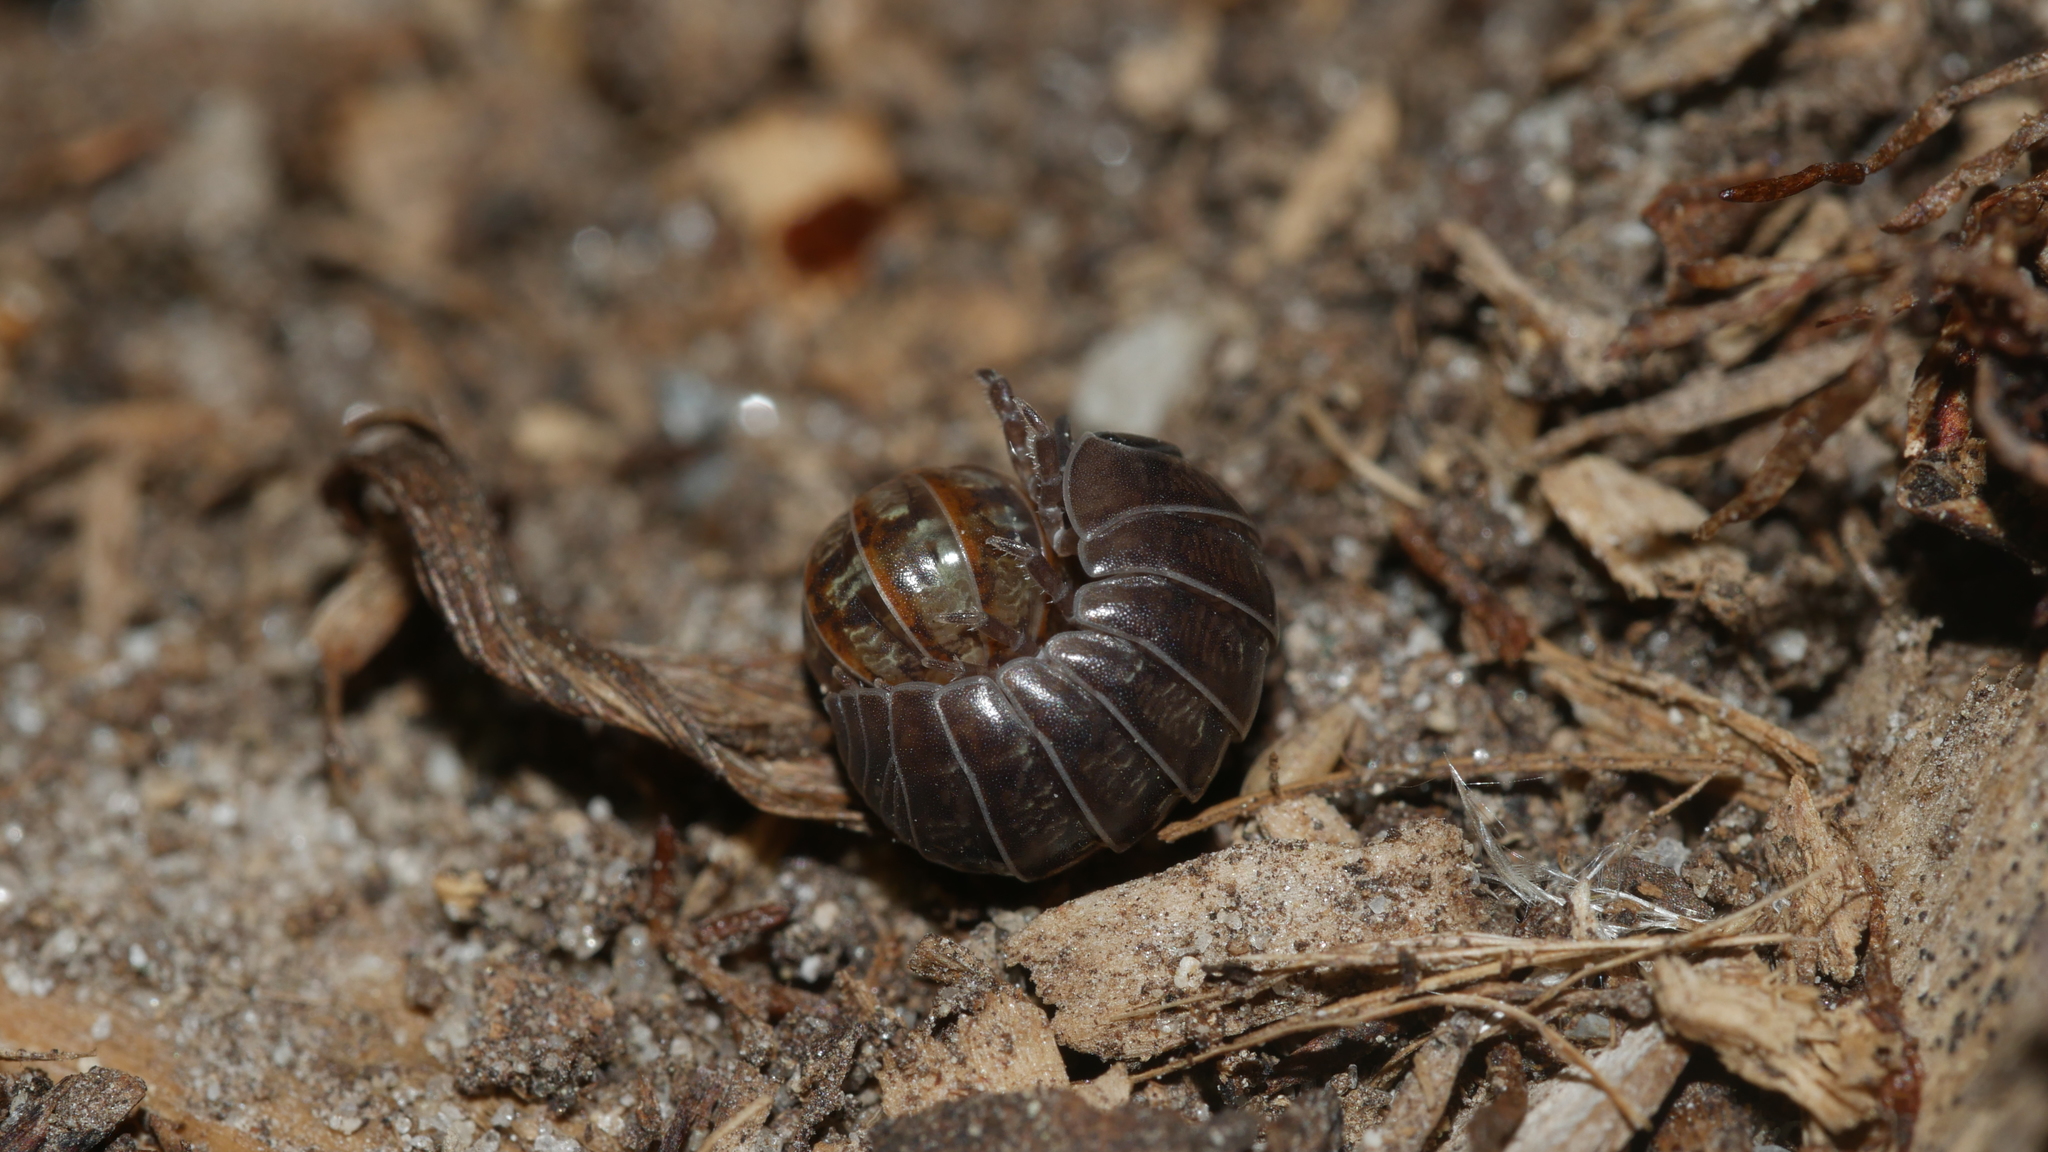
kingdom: Animalia
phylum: Arthropoda
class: Malacostraca
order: Isopoda
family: Armadillidiidae
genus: Armadillidium
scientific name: Armadillidium vulgare
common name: Common pill woodlouse
